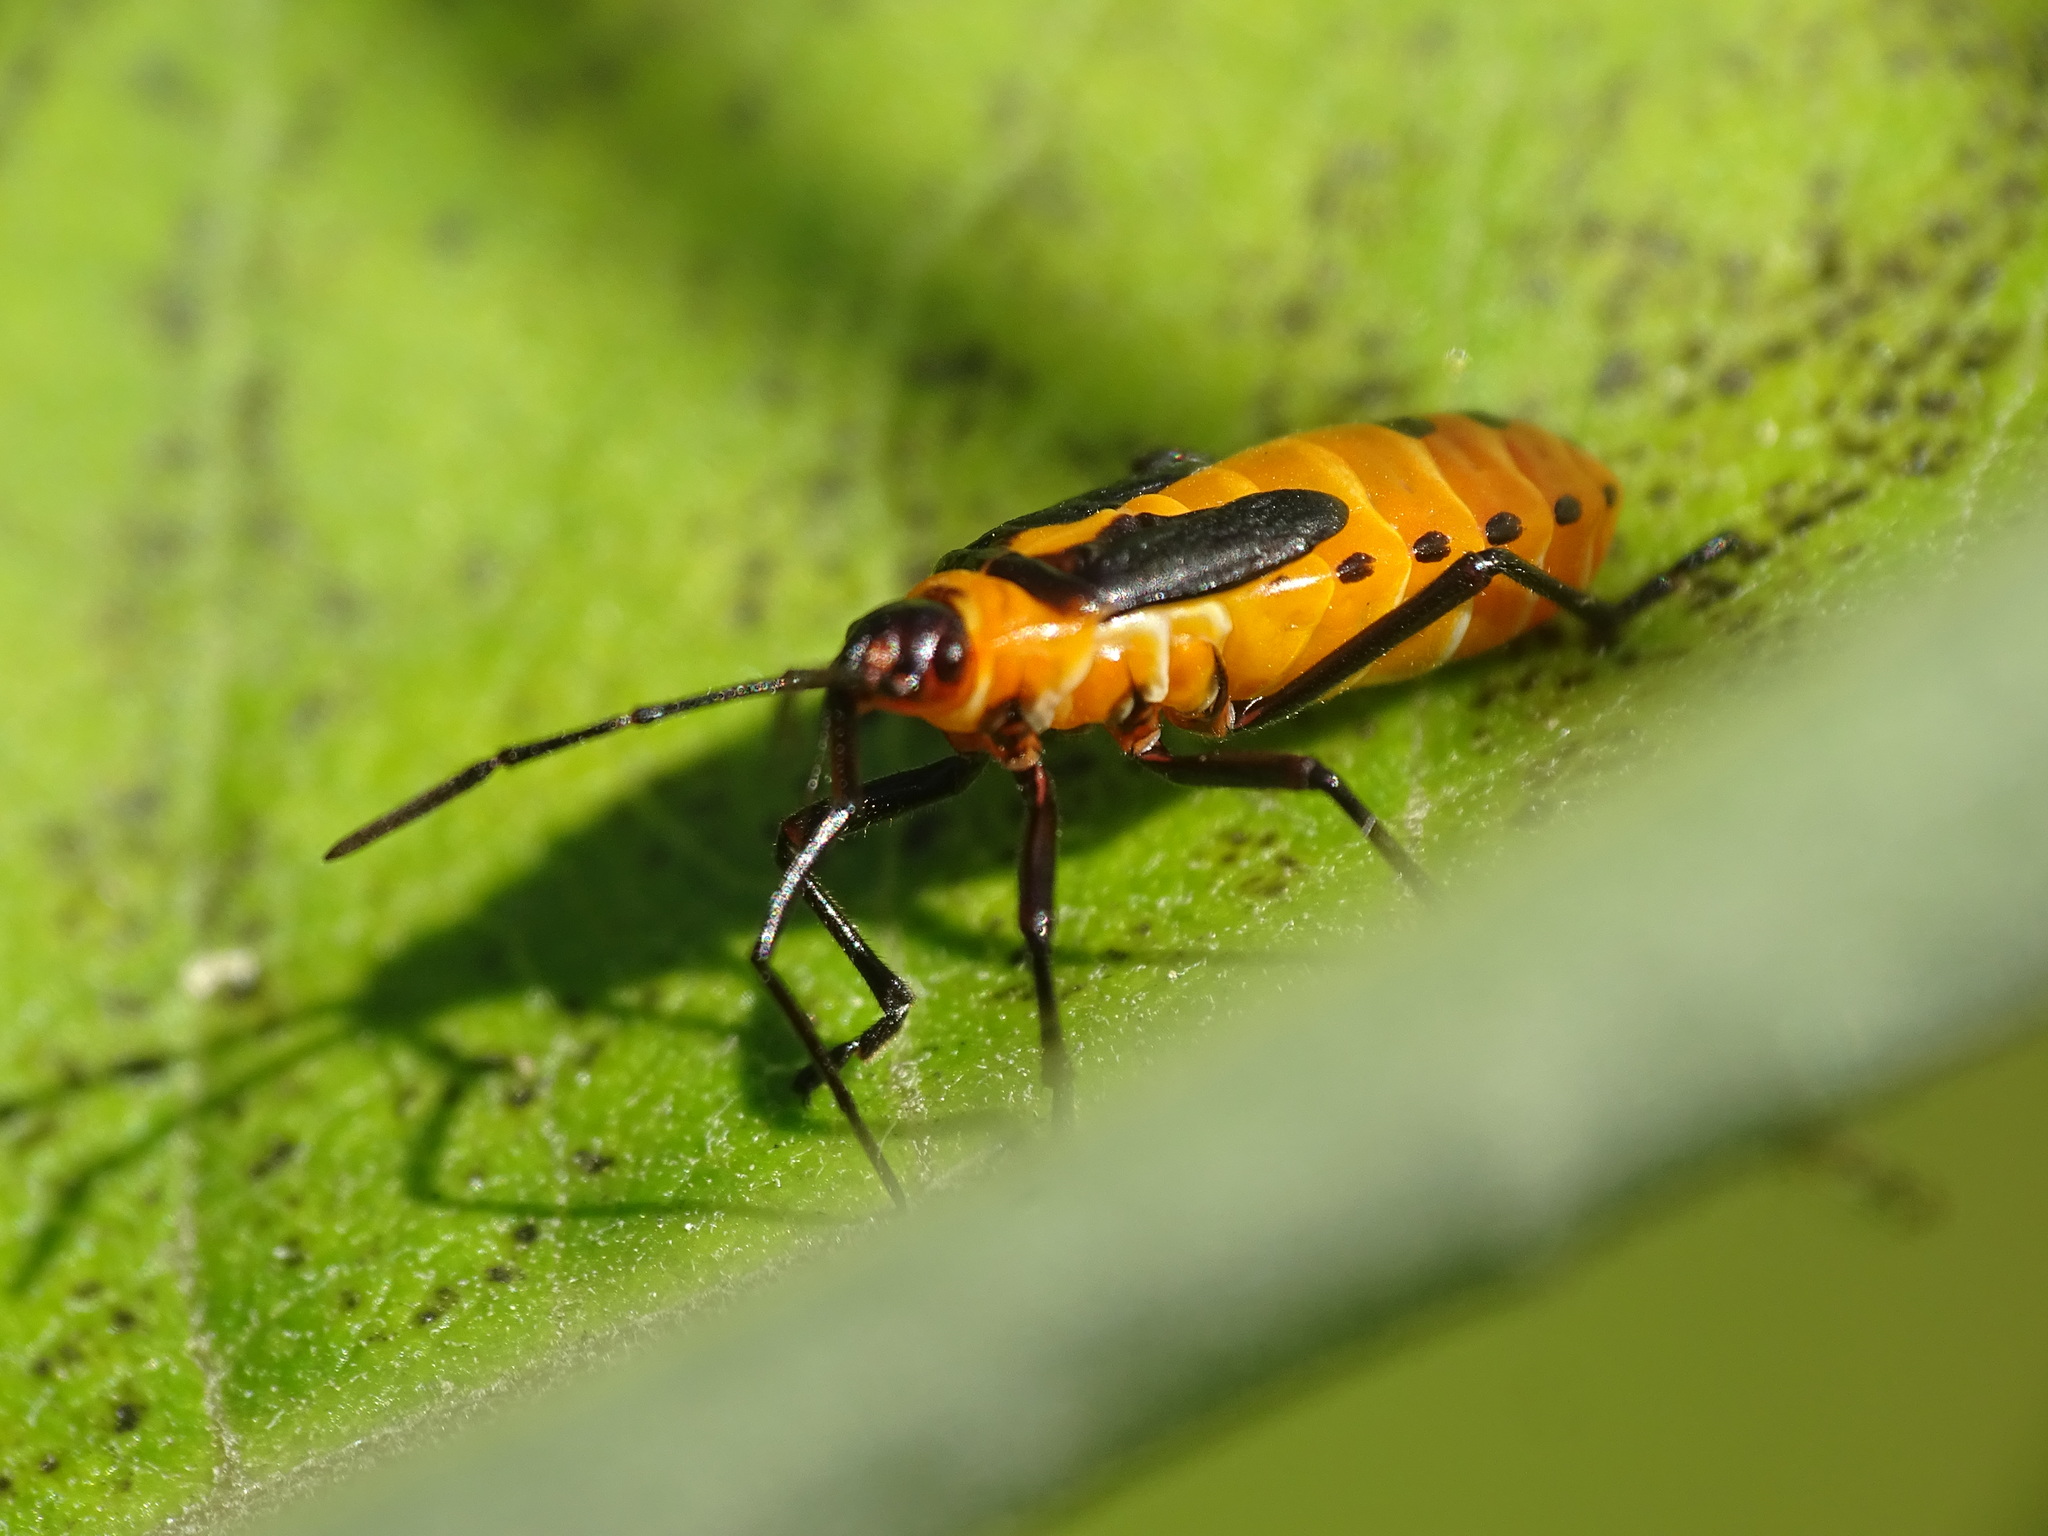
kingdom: Animalia
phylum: Arthropoda
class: Insecta
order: Hemiptera
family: Lygaeidae
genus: Oncopeltus
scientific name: Oncopeltus fasciatus
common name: Large milkweed bug
